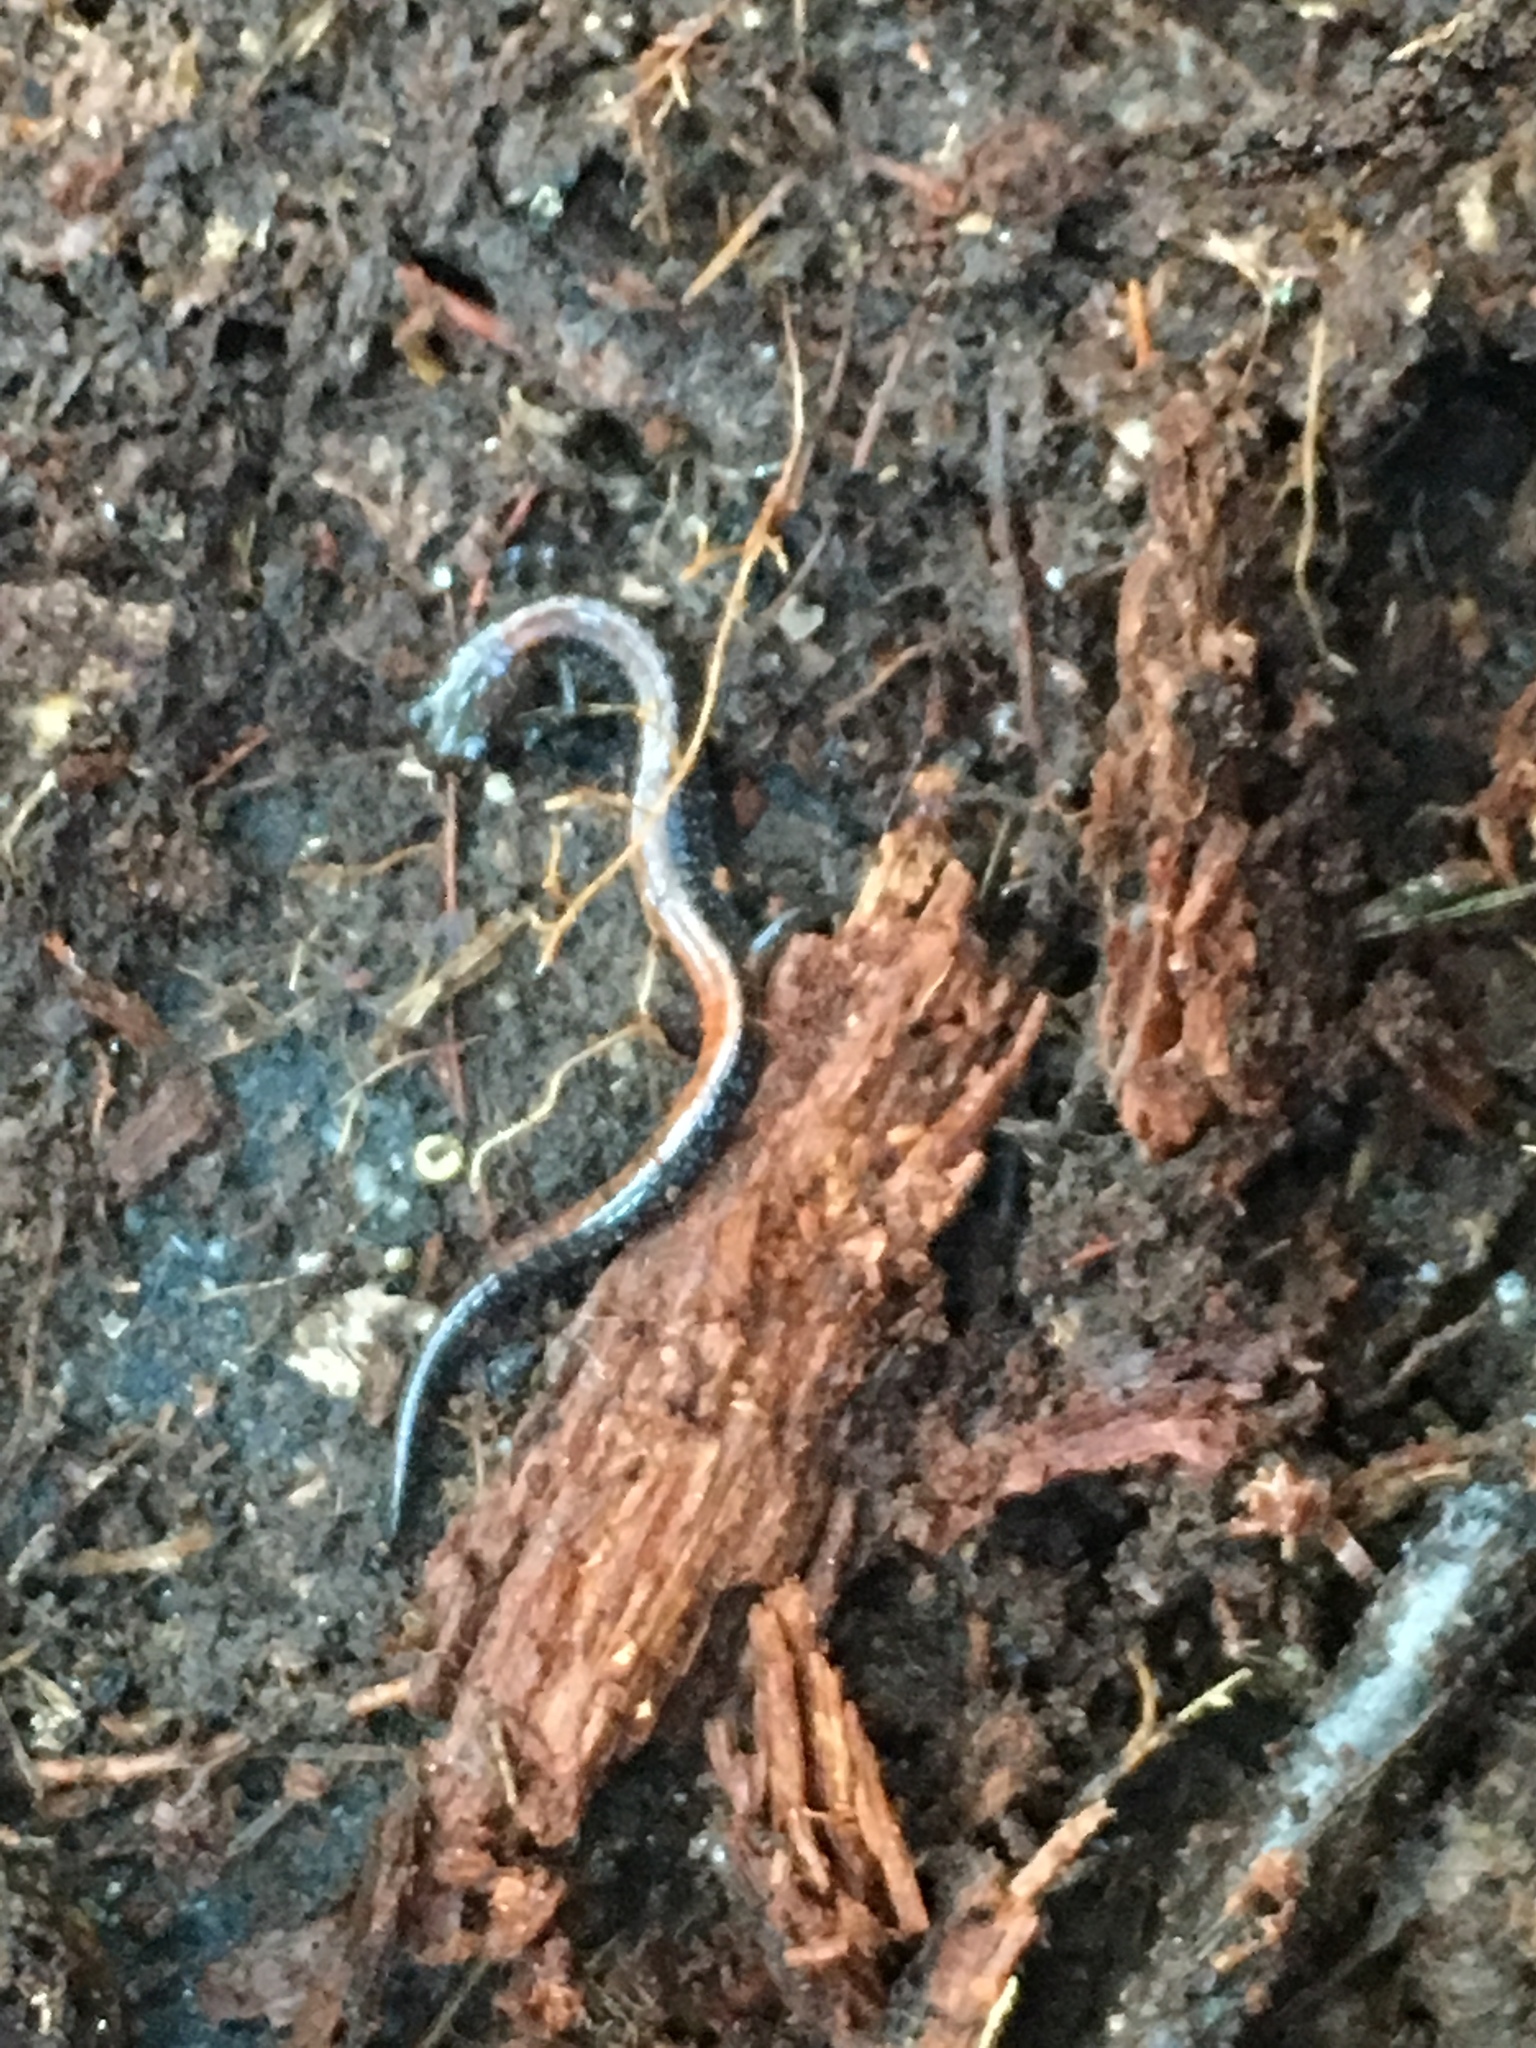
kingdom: Animalia
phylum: Chordata
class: Amphibia
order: Caudata
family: Plethodontidae
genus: Plethodon
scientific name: Plethodon cinereus
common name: Redback salamander
